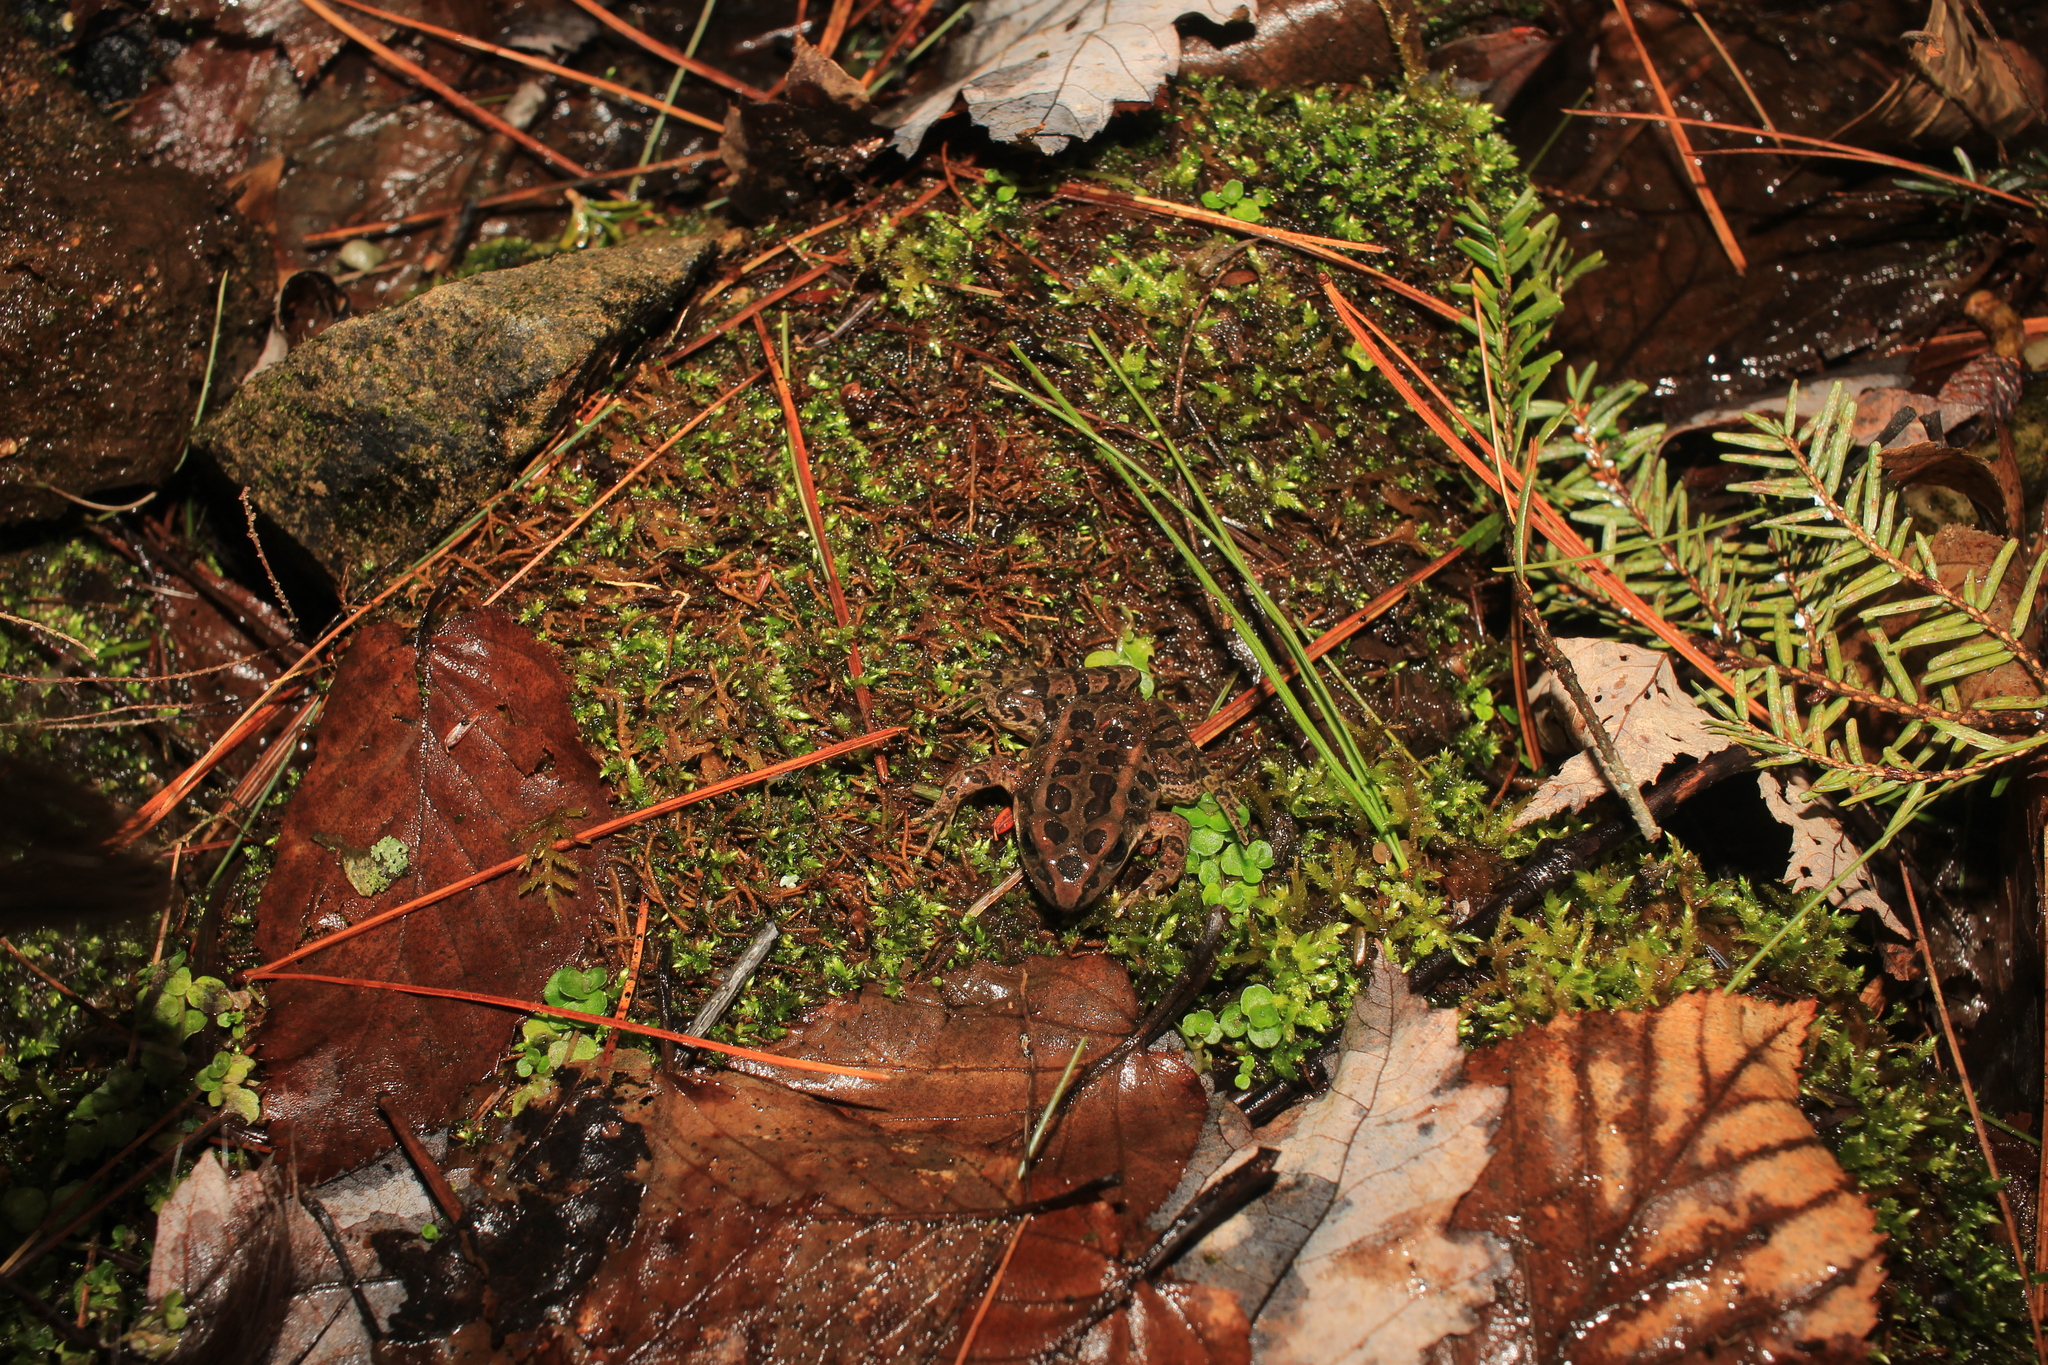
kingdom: Animalia
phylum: Chordata
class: Amphibia
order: Anura
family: Ranidae
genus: Lithobates
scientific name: Lithobates palustris
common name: Pickerel frog
